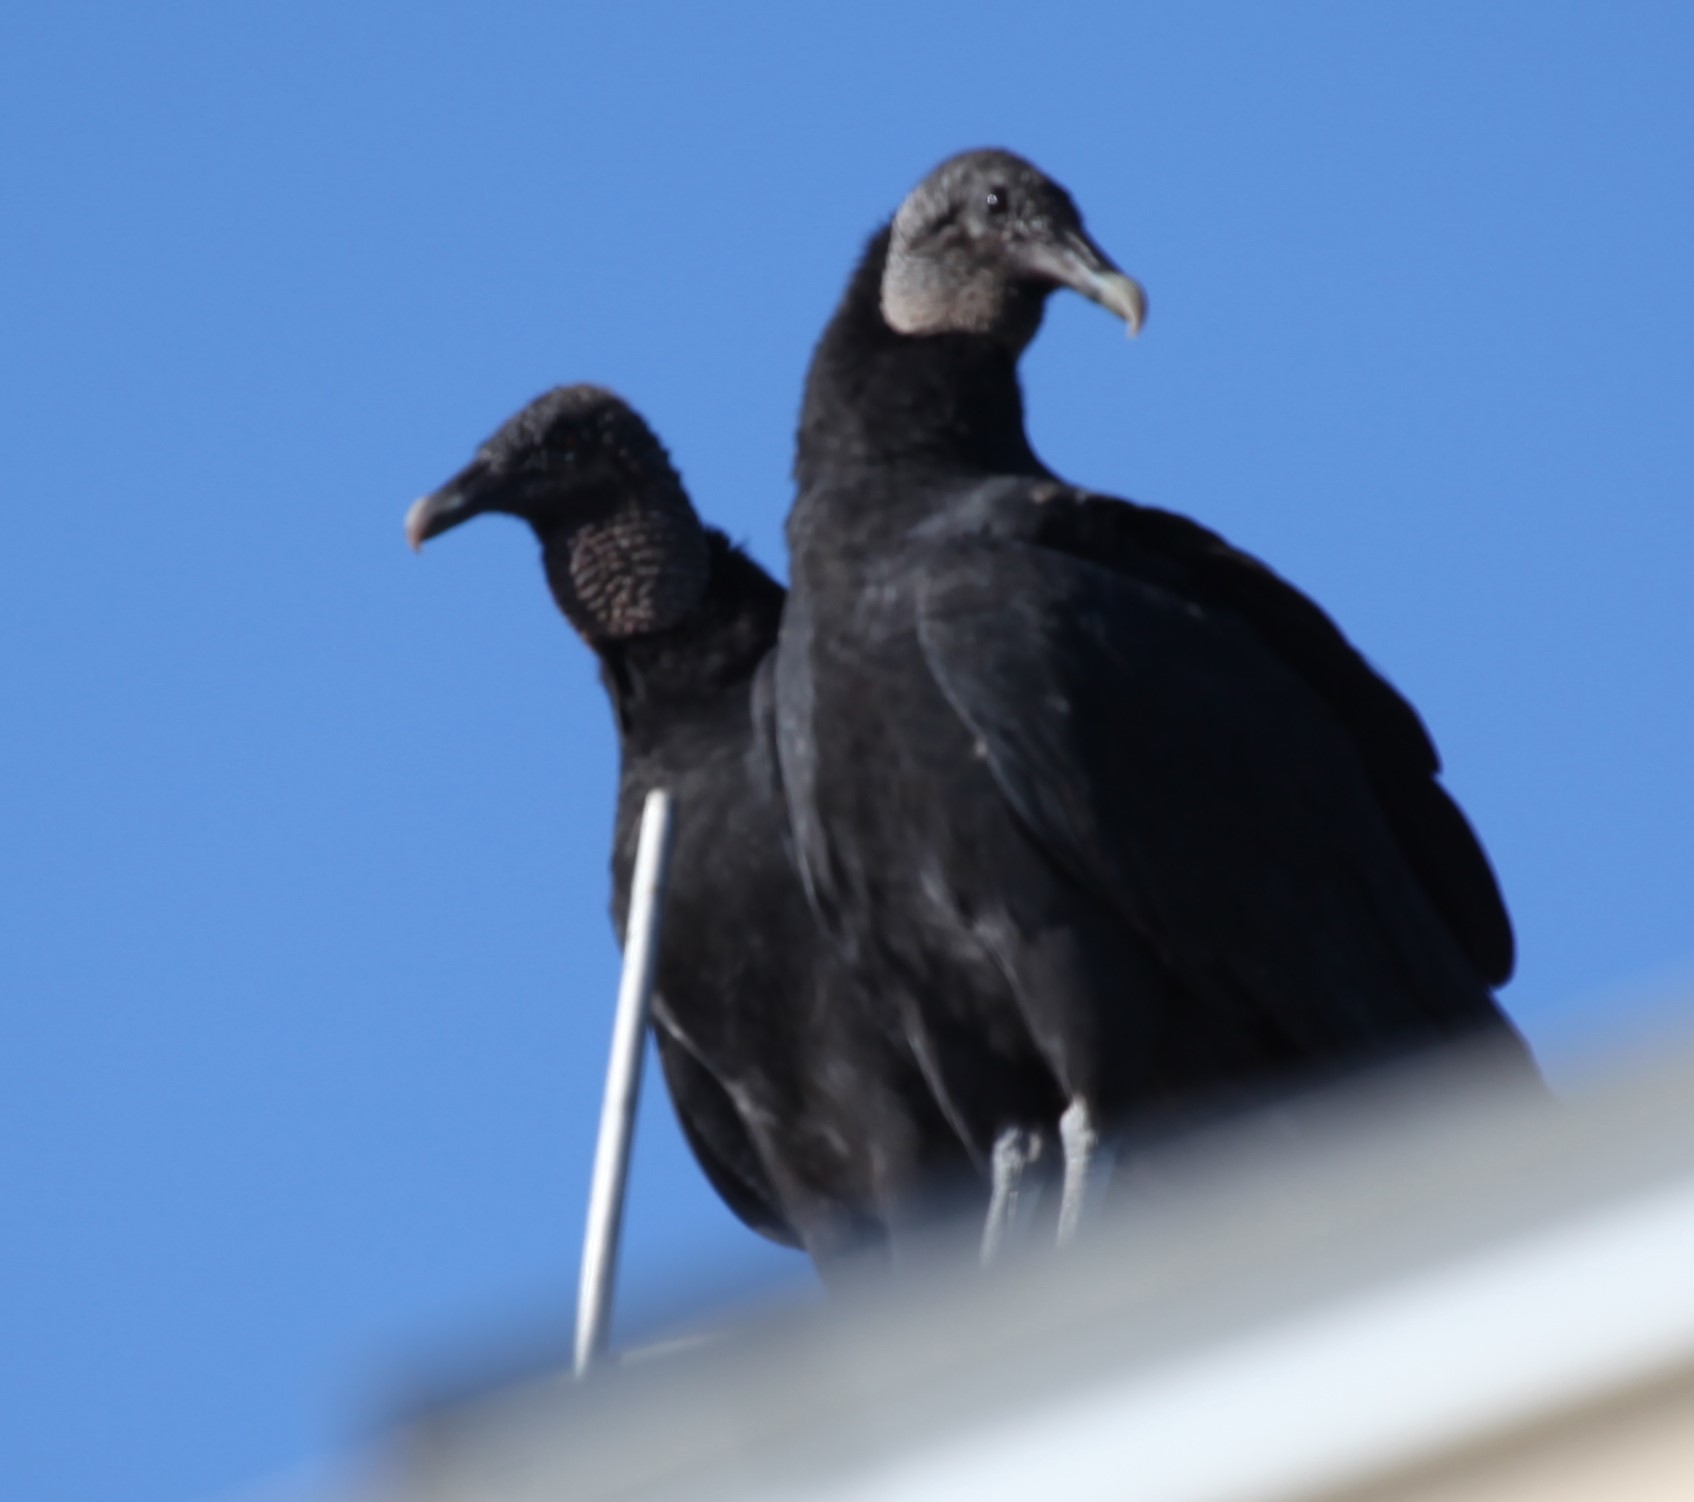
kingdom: Animalia
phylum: Chordata
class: Aves
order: Accipitriformes
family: Cathartidae
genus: Coragyps
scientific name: Coragyps atratus
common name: Black vulture
